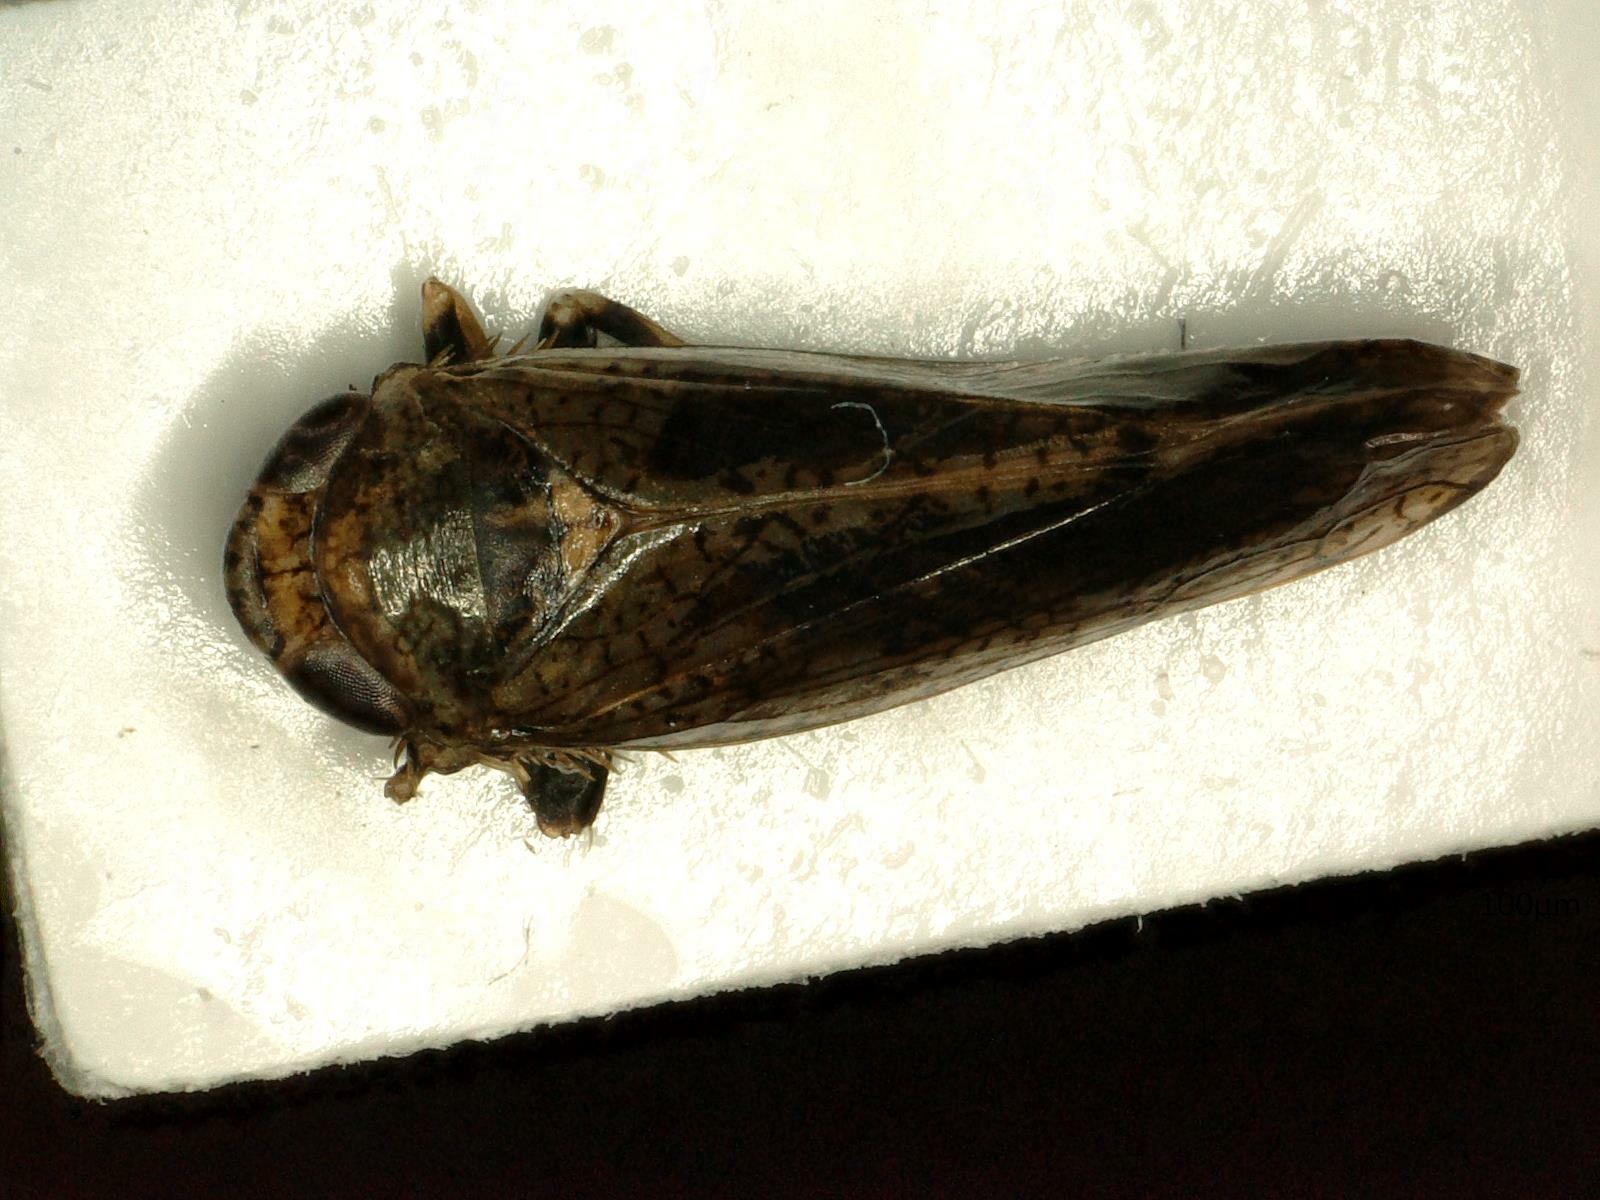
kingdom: Animalia
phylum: Arthropoda
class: Insecta
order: Hemiptera
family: Cicadellidae
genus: Orientus
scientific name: Orientus ishidae
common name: Japanese leafhopper
